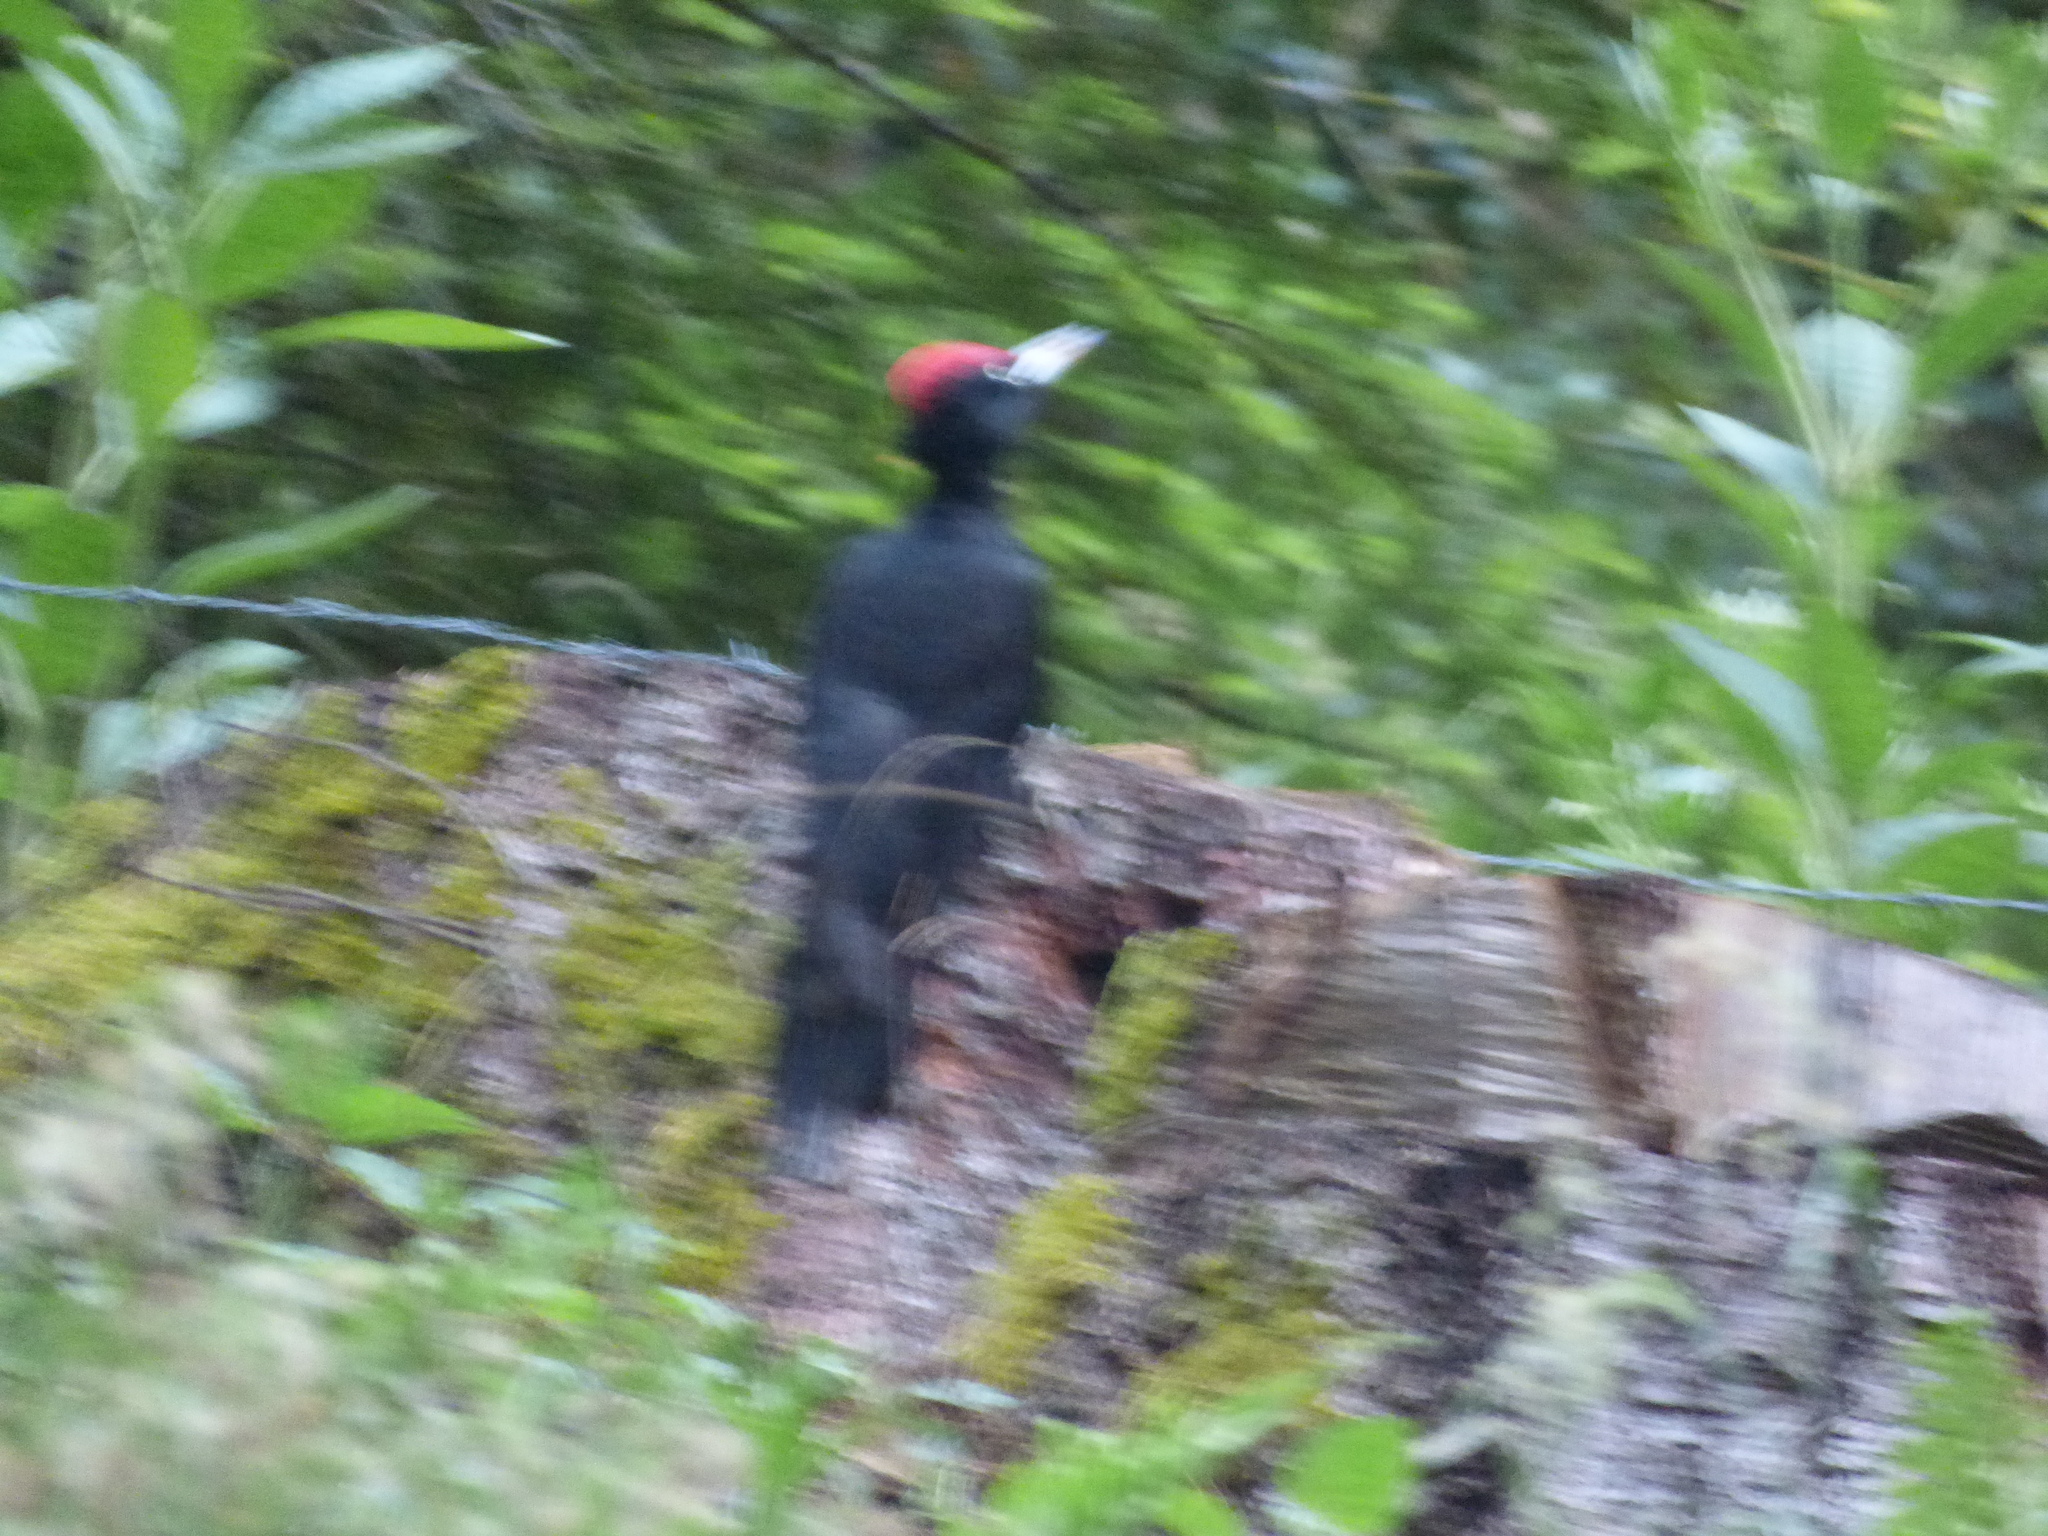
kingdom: Animalia
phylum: Chordata
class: Aves
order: Piciformes
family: Picidae
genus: Dryocopus
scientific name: Dryocopus martius
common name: Black woodpecker
